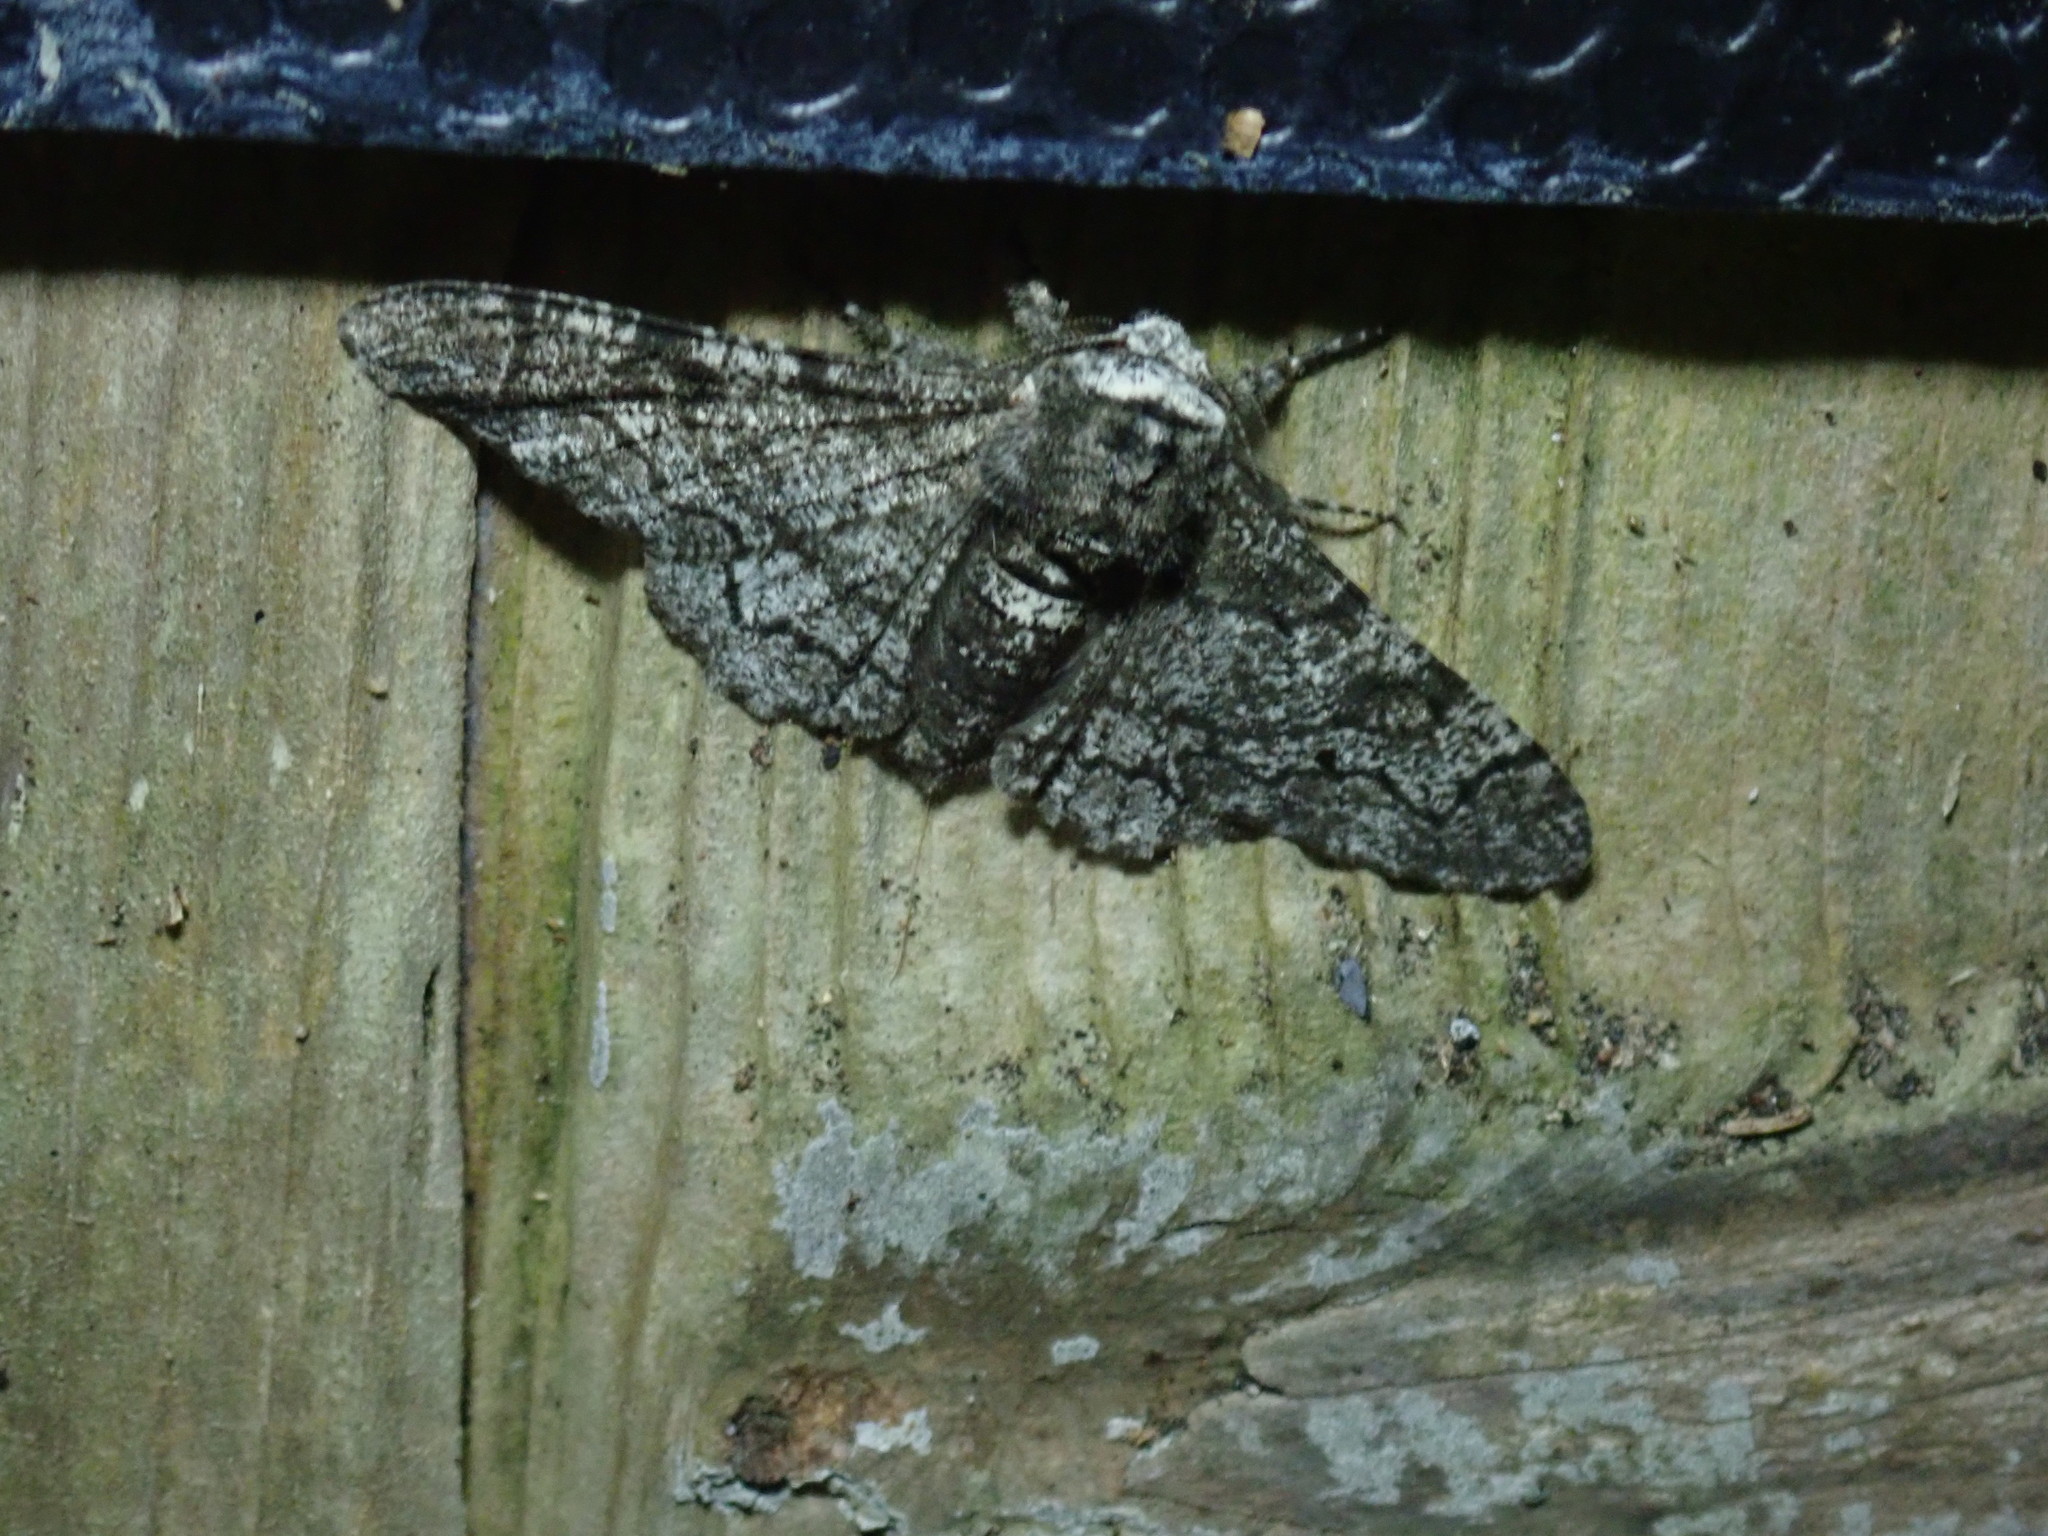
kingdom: Animalia
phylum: Arthropoda
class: Insecta
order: Lepidoptera
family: Geometridae
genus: Biston
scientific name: Biston betularia
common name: Peppered moth
